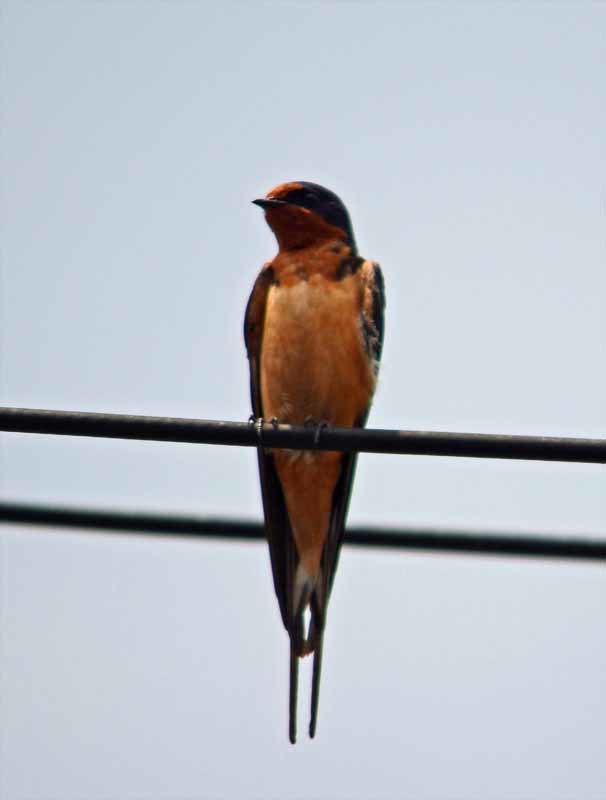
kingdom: Animalia
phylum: Chordata
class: Aves
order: Passeriformes
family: Hirundinidae
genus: Hirundo
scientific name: Hirundo rustica
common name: Barn swallow
